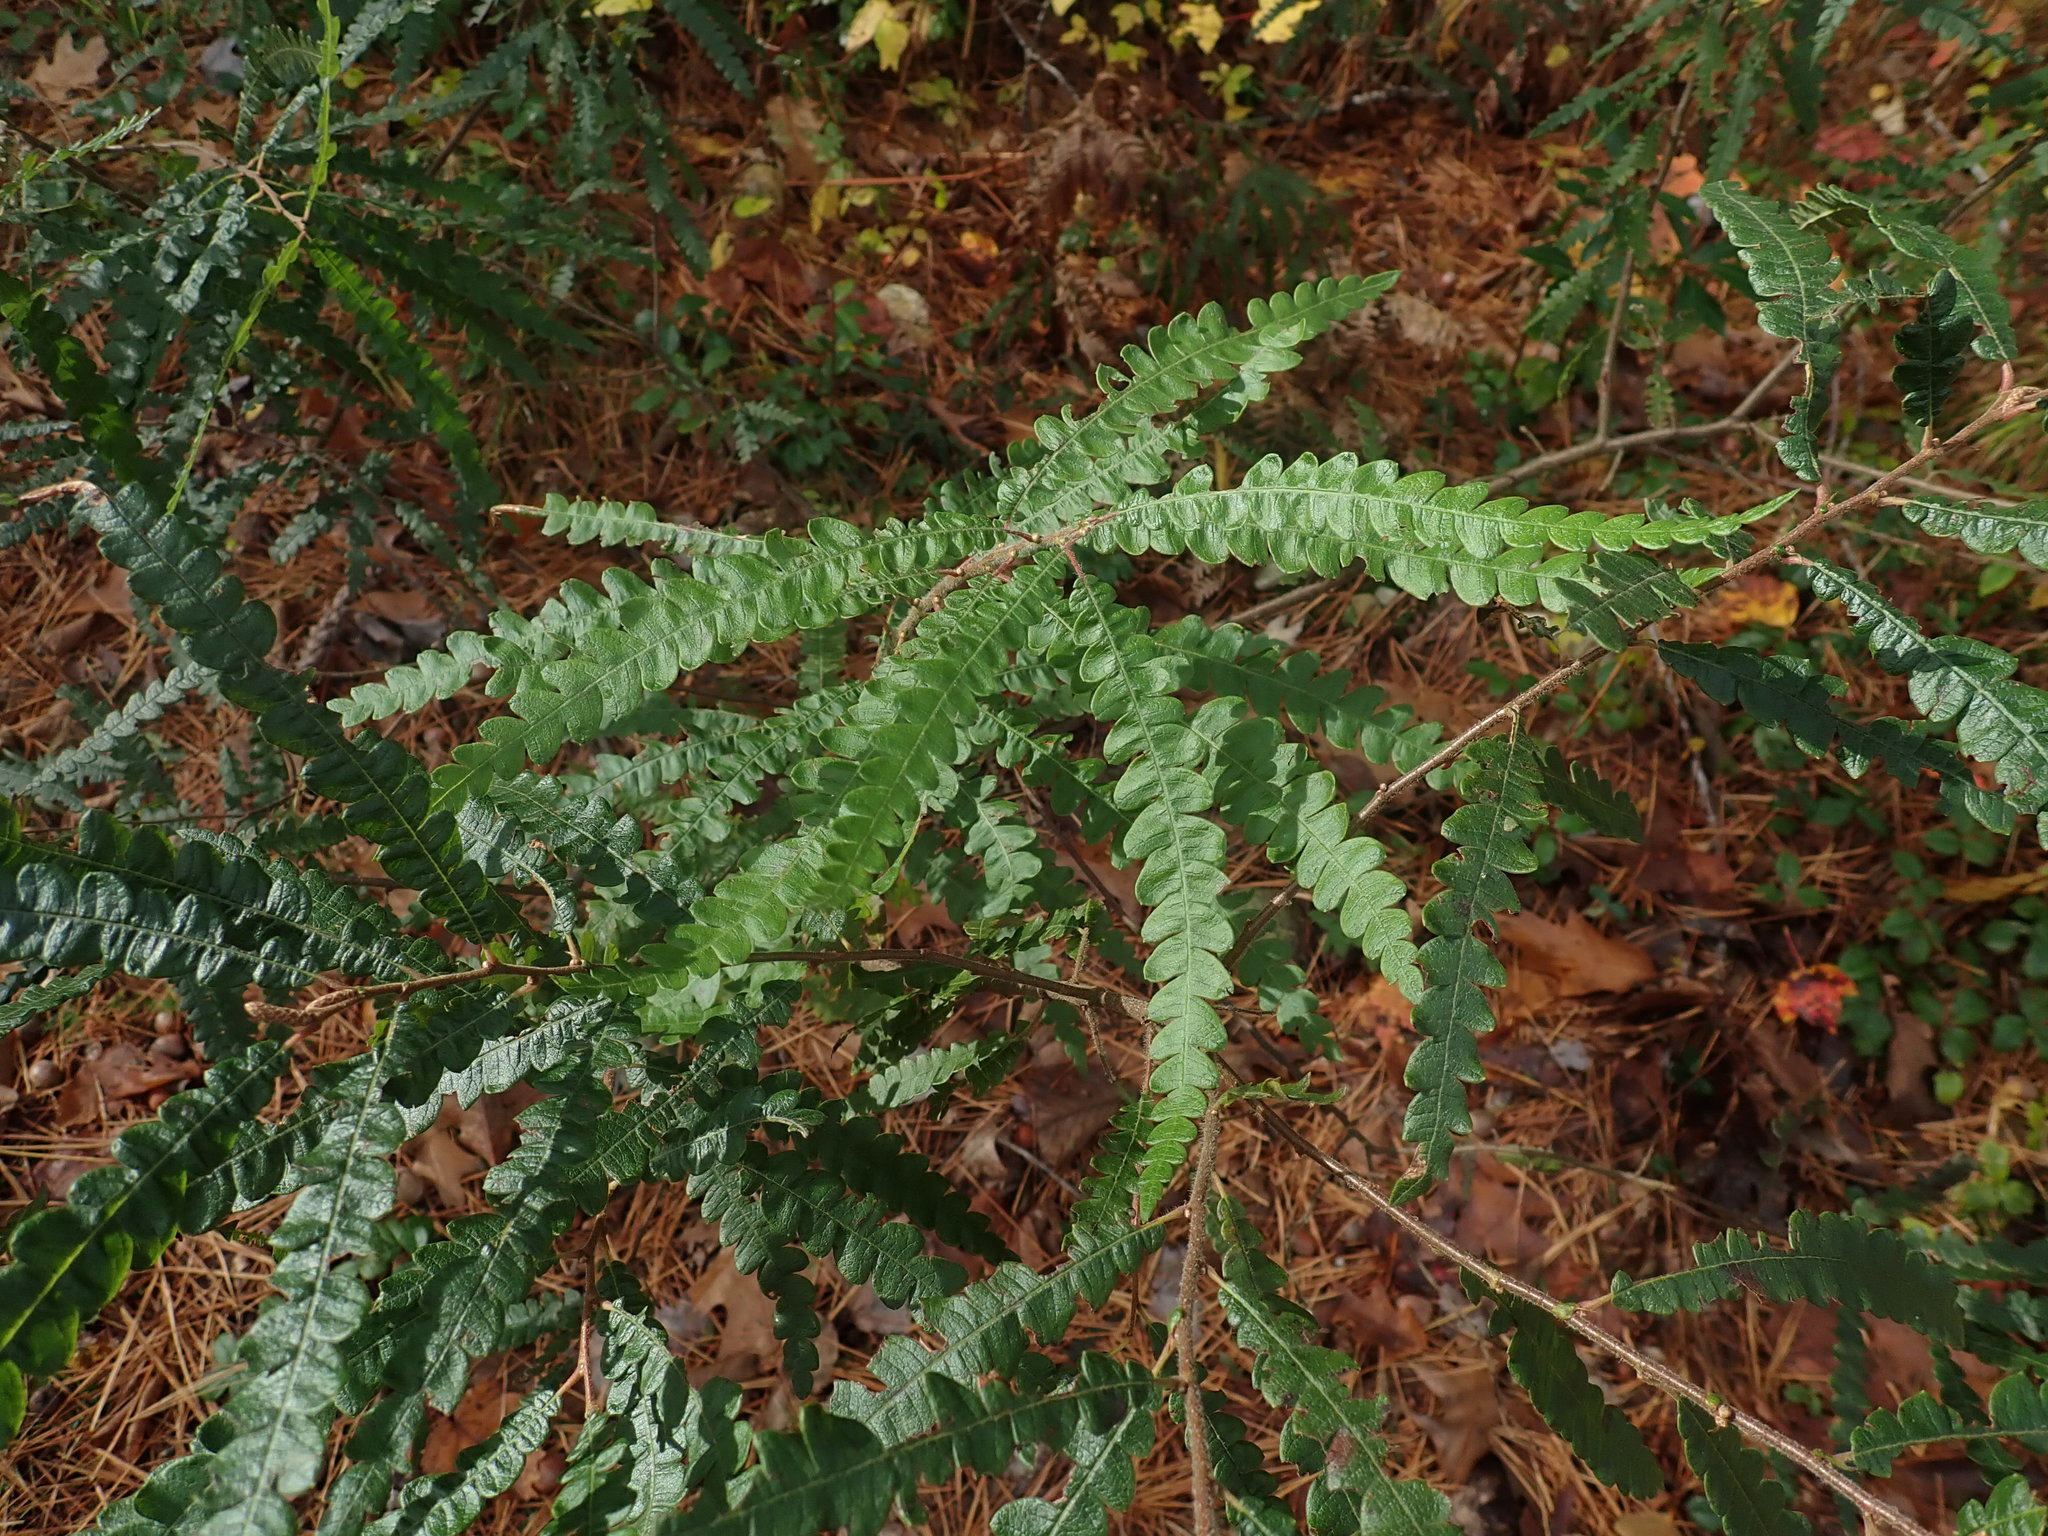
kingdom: Plantae
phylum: Tracheophyta
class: Magnoliopsida
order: Fagales
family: Myricaceae
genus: Comptonia
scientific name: Comptonia peregrina
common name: Sweet-fern
